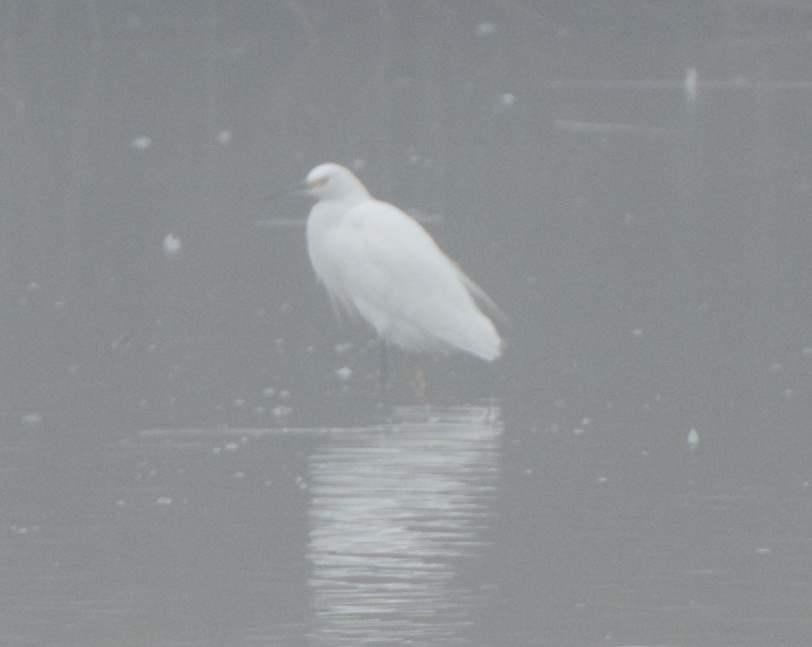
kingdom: Animalia
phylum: Chordata
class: Aves
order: Pelecaniformes
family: Ardeidae
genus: Egretta
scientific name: Egretta thula
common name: Snowy egret
